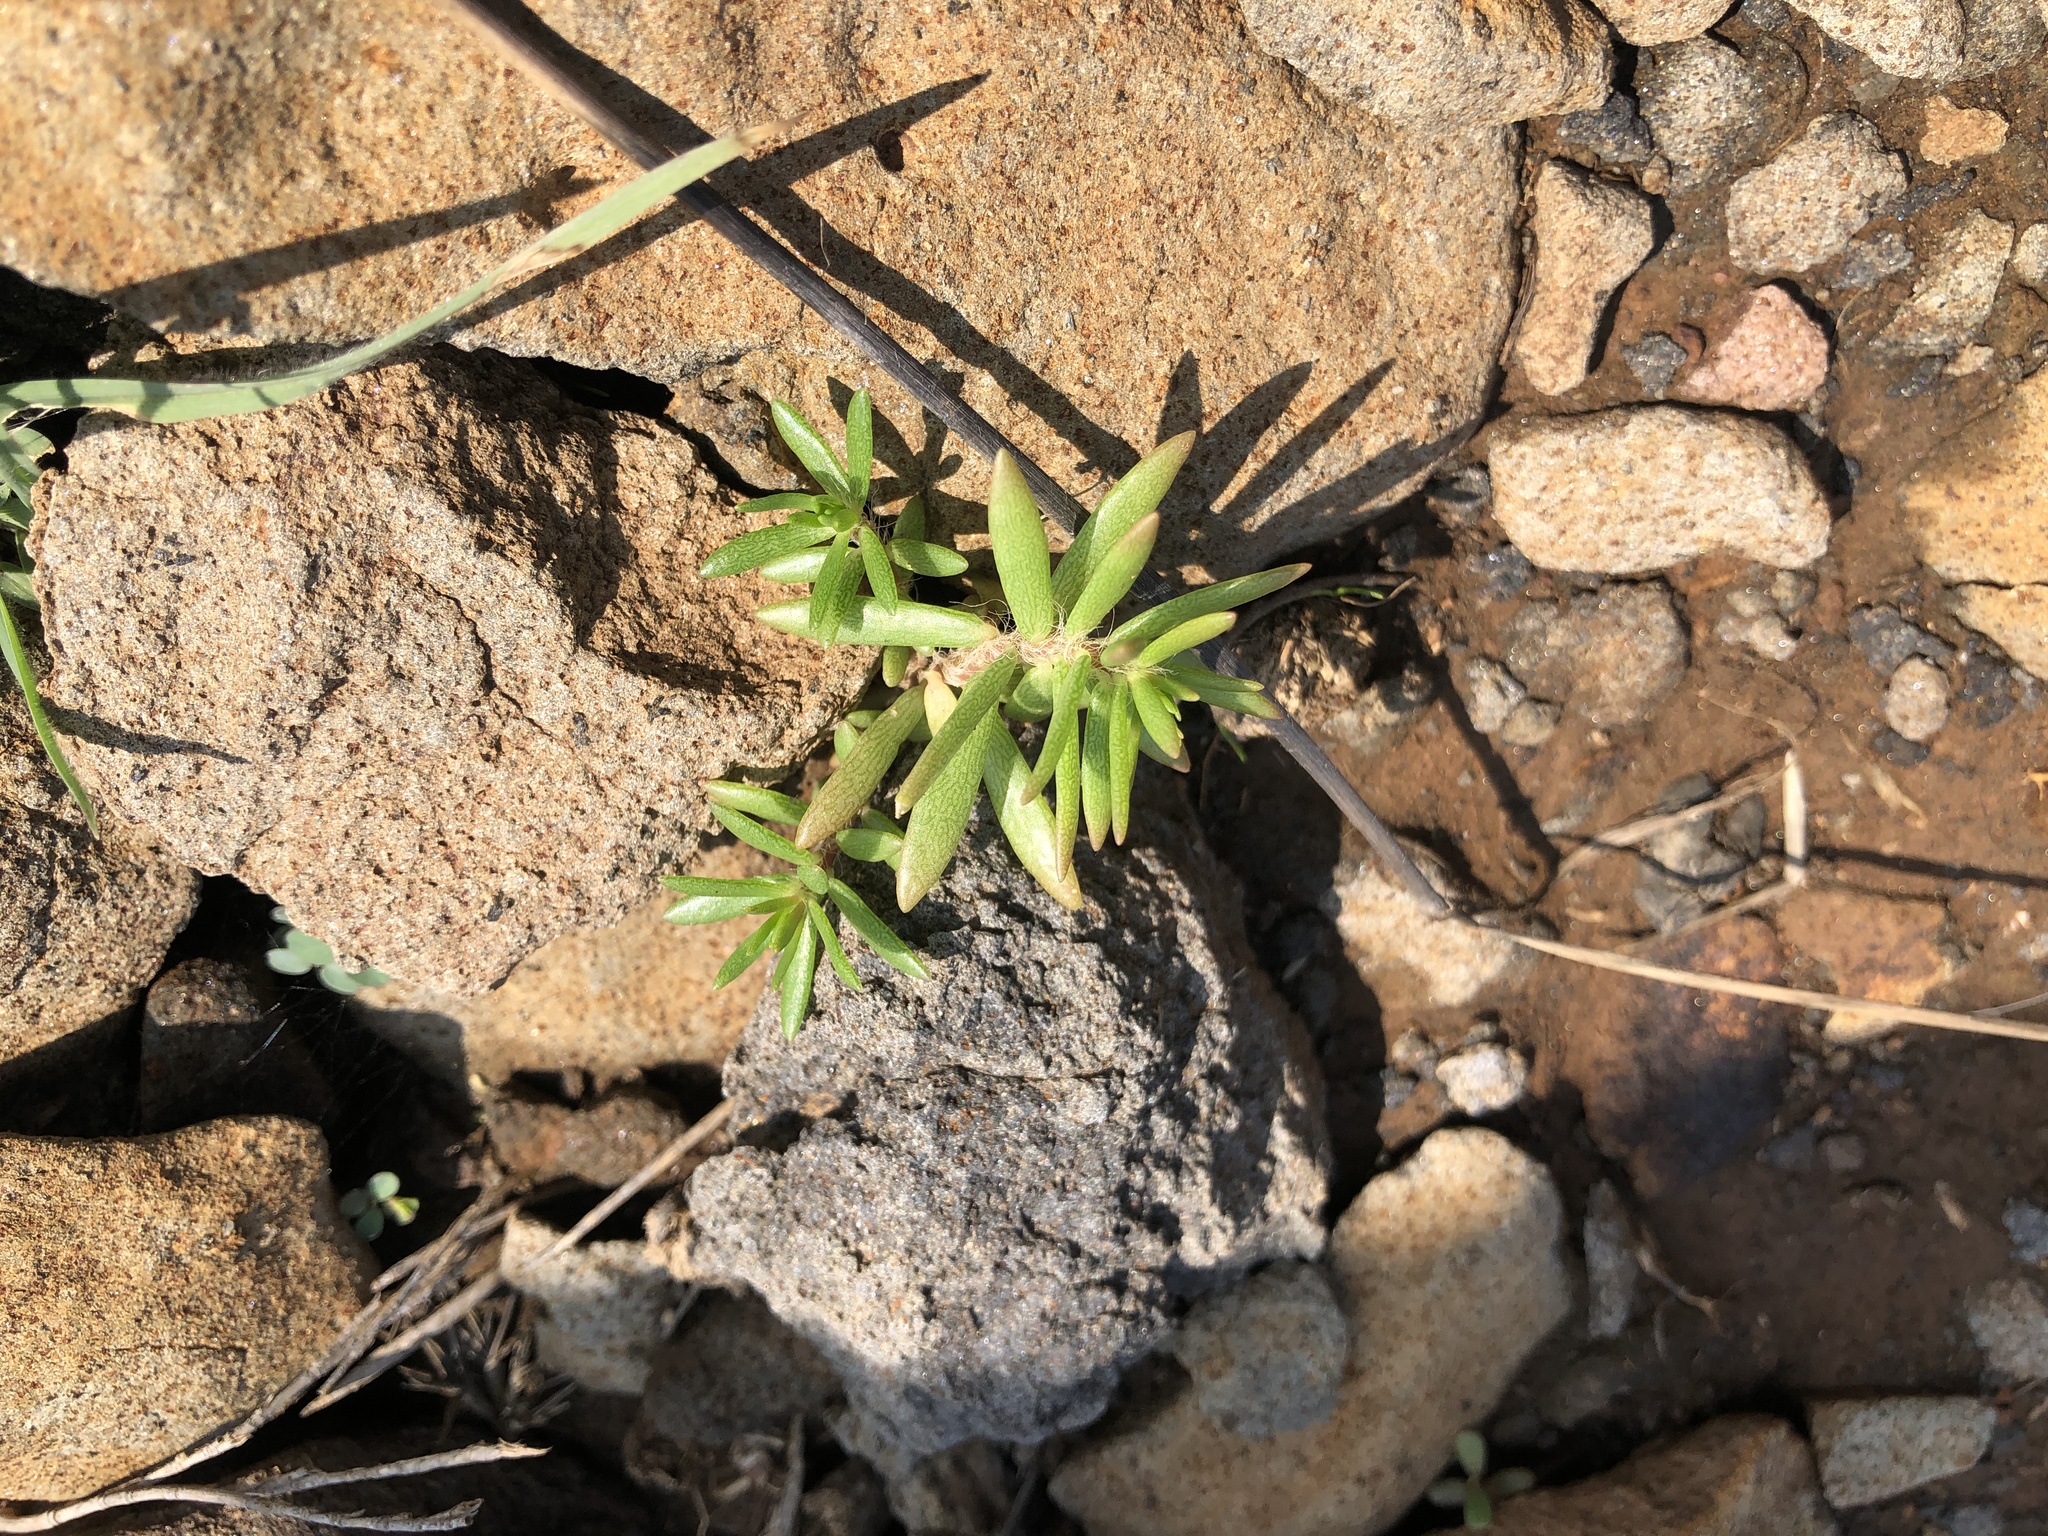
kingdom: Plantae
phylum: Tracheophyta
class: Magnoliopsida
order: Caryophyllales
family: Portulacaceae
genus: Portulaca
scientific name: Portulaca pilosa
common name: Kiss me quick
